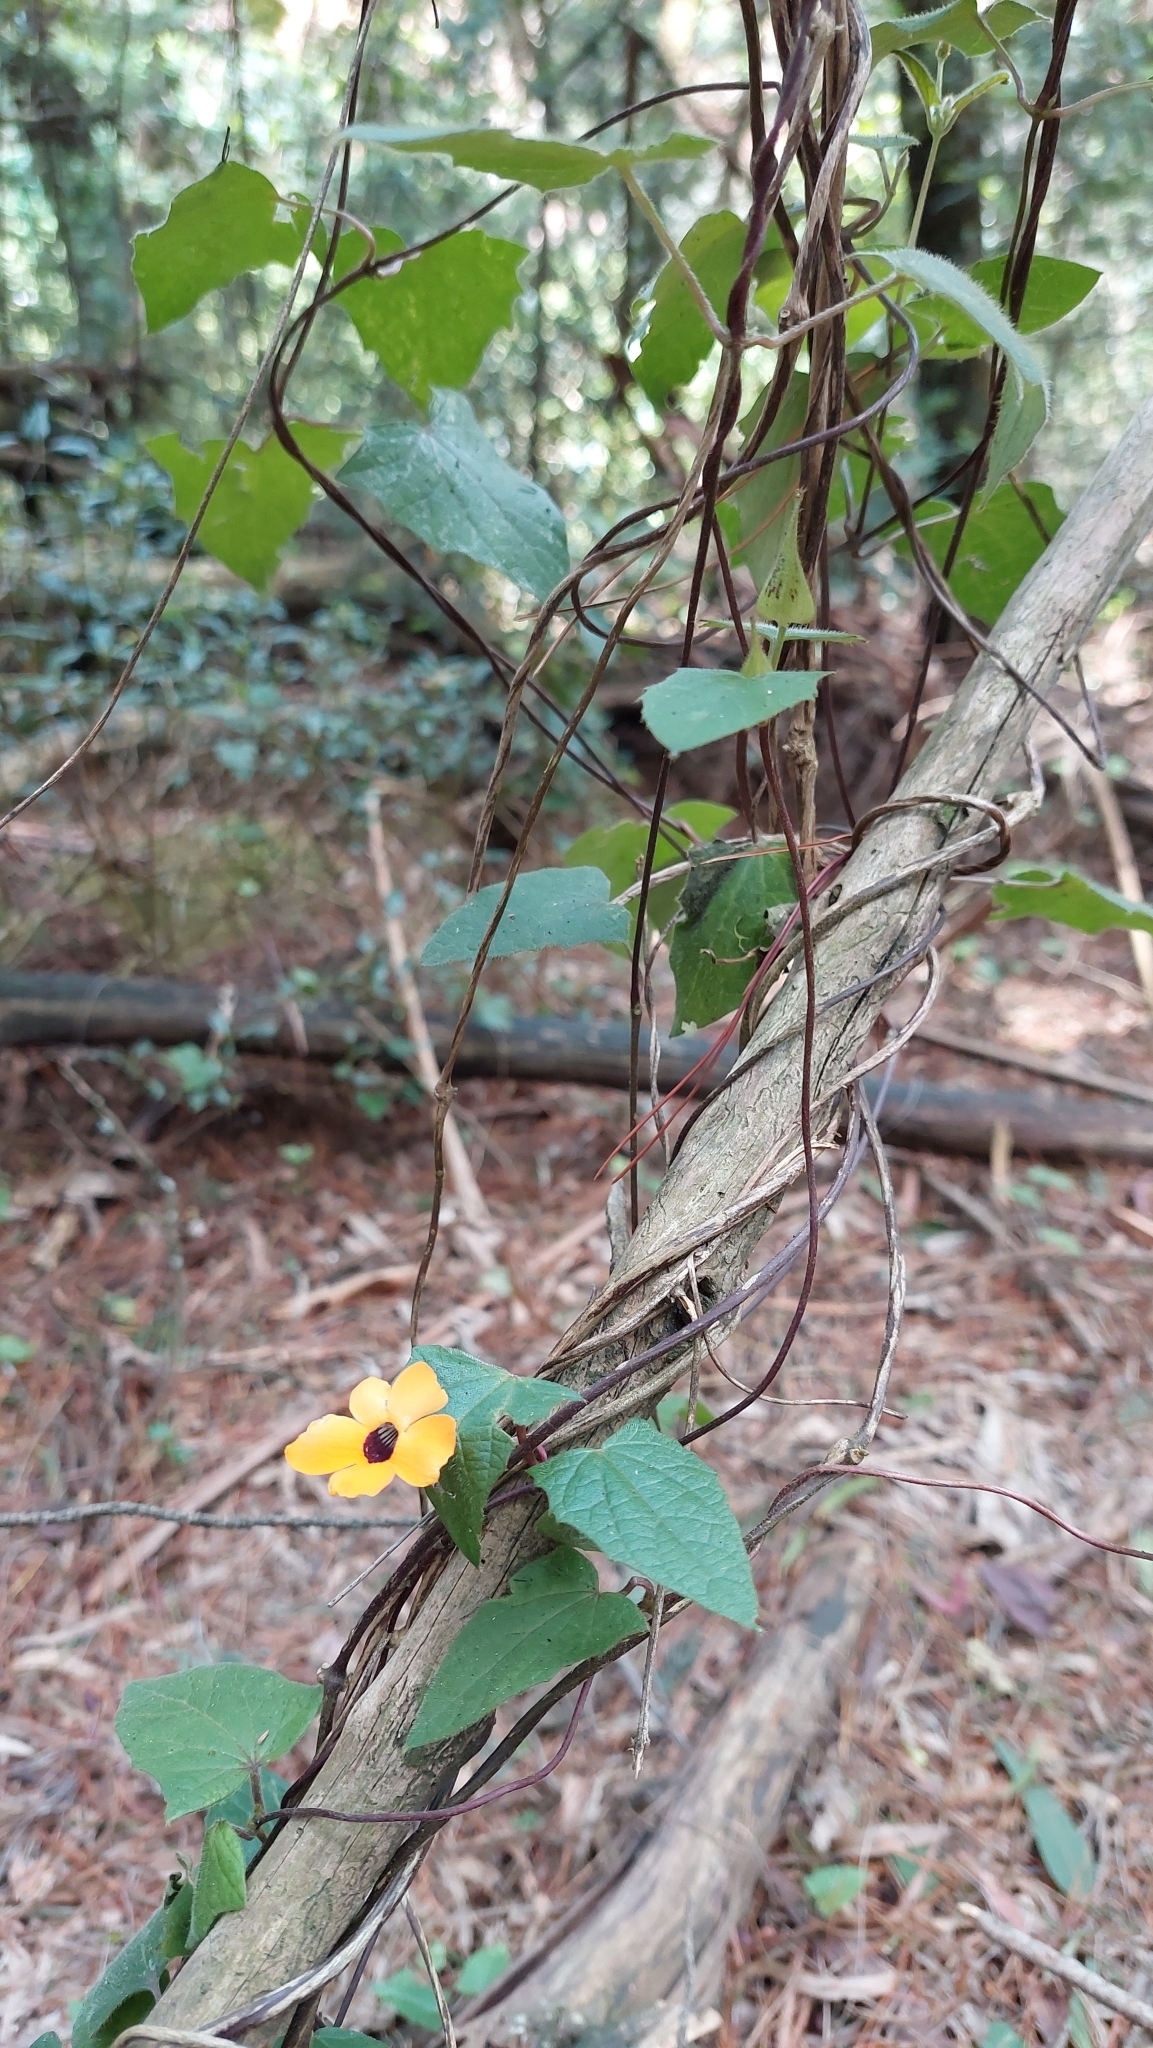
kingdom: Plantae
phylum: Tracheophyta
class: Magnoliopsida
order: Lamiales
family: Acanthaceae
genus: Thunbergia
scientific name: Thunbergia alata
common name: Blackeyed susan vine
